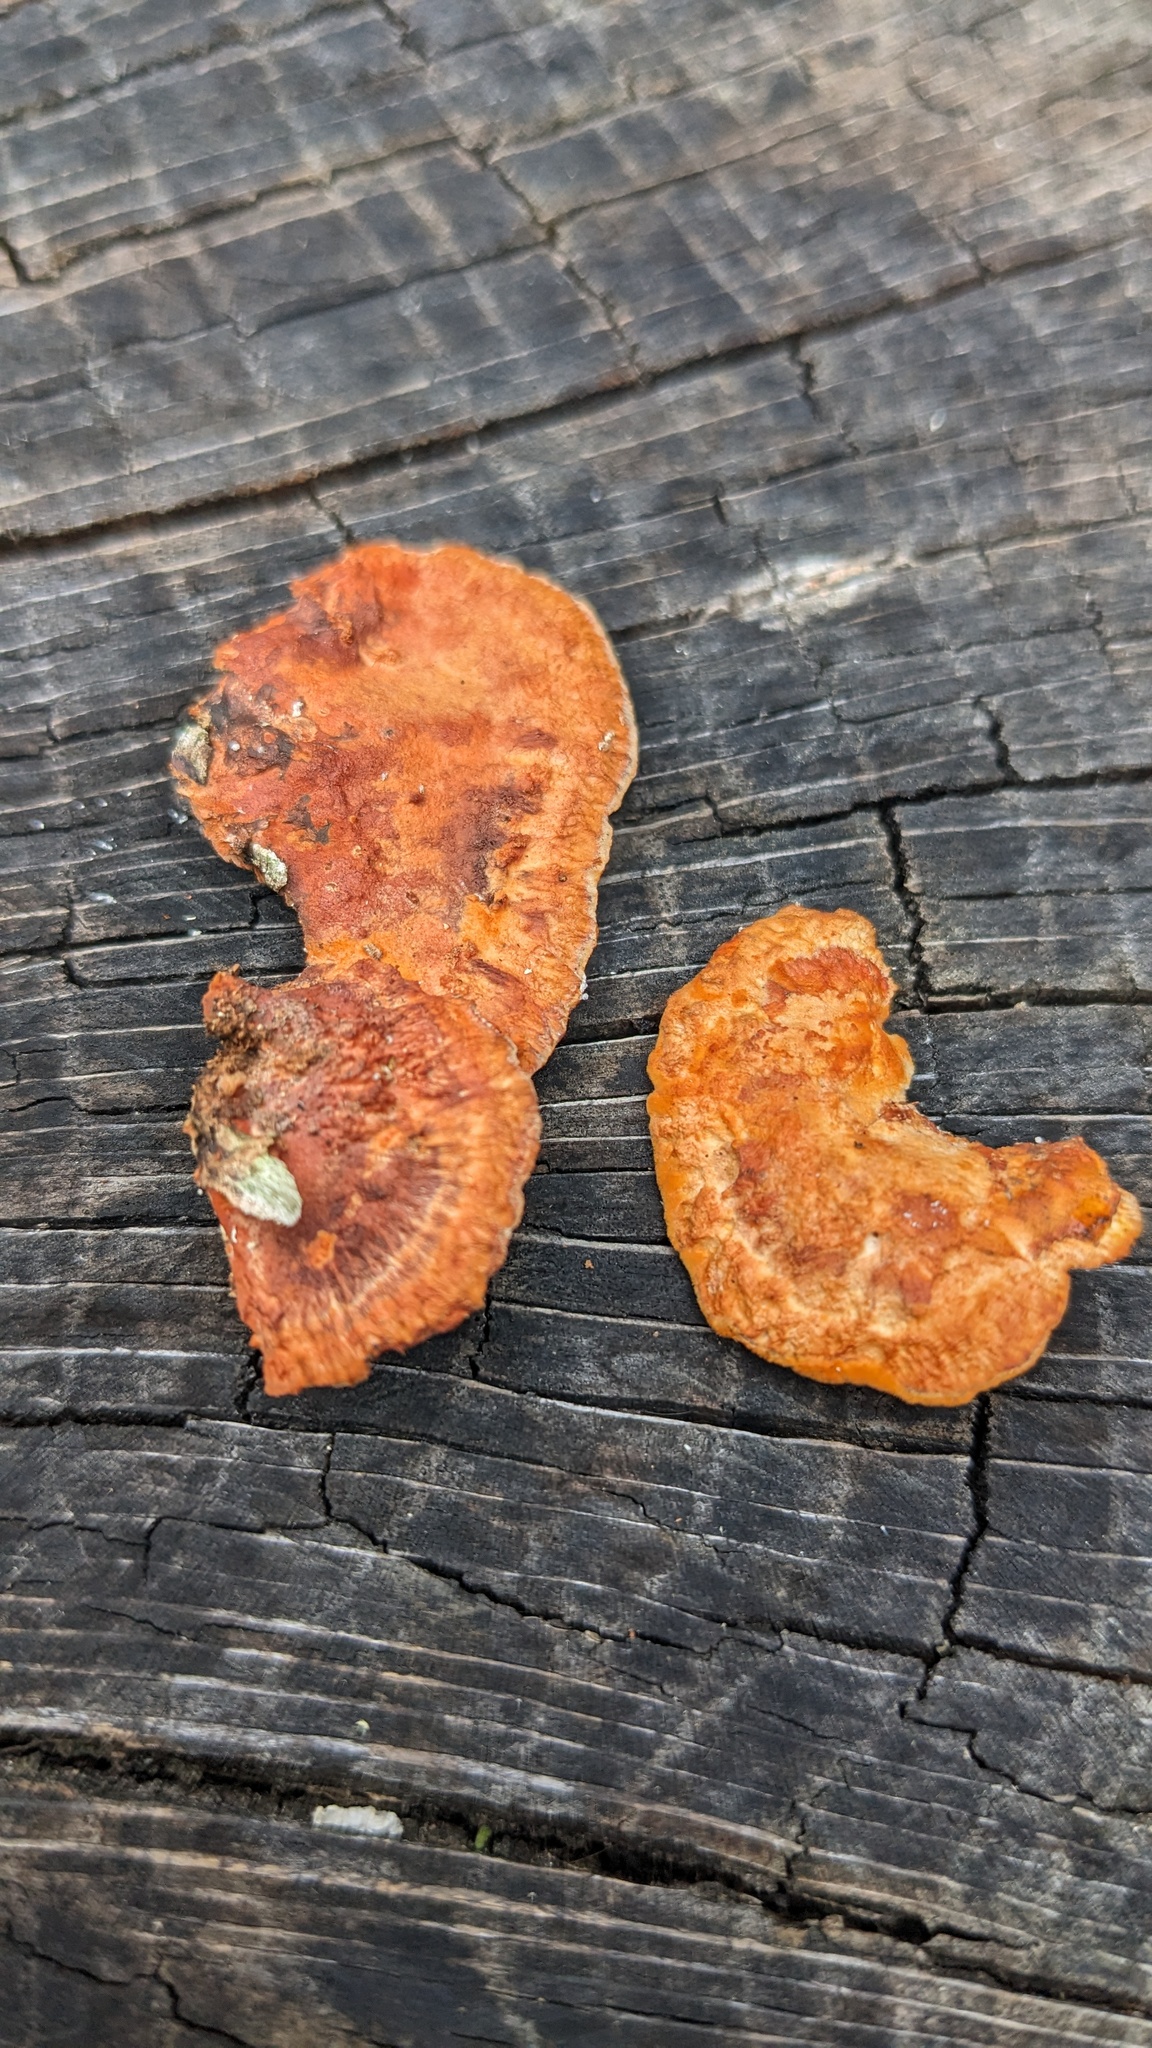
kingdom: Fungi
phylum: Basidiomycota
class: Agaricomycetes
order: Polyporales
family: Polyporaceae
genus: Trametes
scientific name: Trametes coccinea
